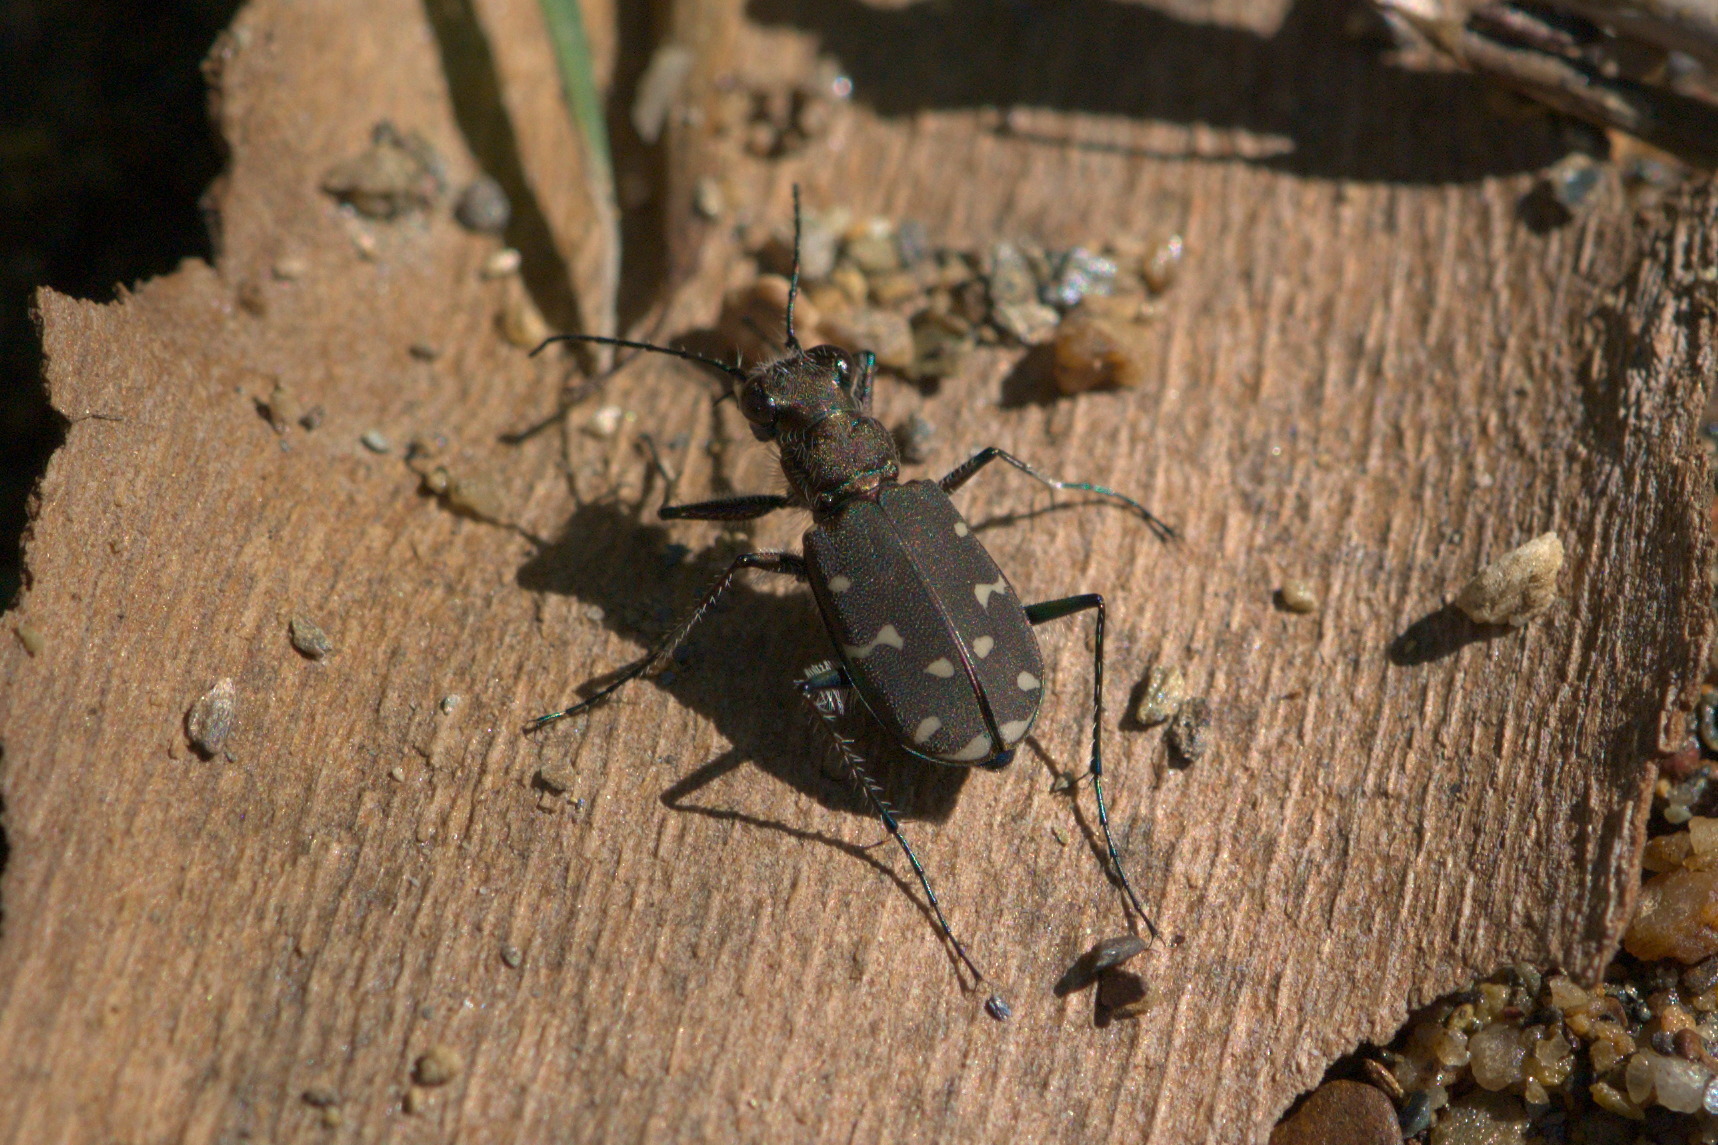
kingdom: Animalia
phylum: Arthropoda
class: Insecta
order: Coleoptera
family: Carabidae
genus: Cicindela
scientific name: Cicindela duodecimguttata
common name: Twelve-spotted tiger beetle
